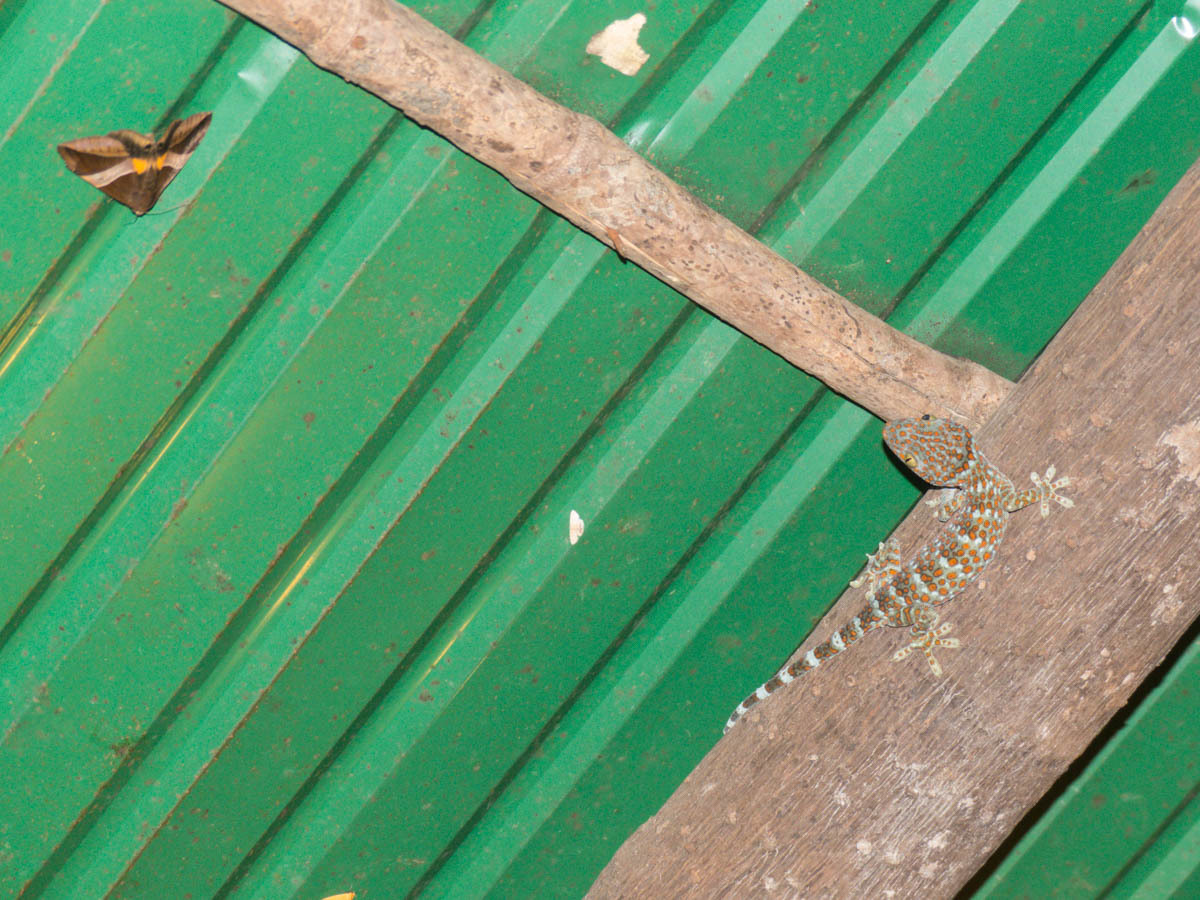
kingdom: Animalia
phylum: Chordata
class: Squamata
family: Gekkonidae
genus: Gekko
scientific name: Gekko gecko
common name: Tokay gecko
